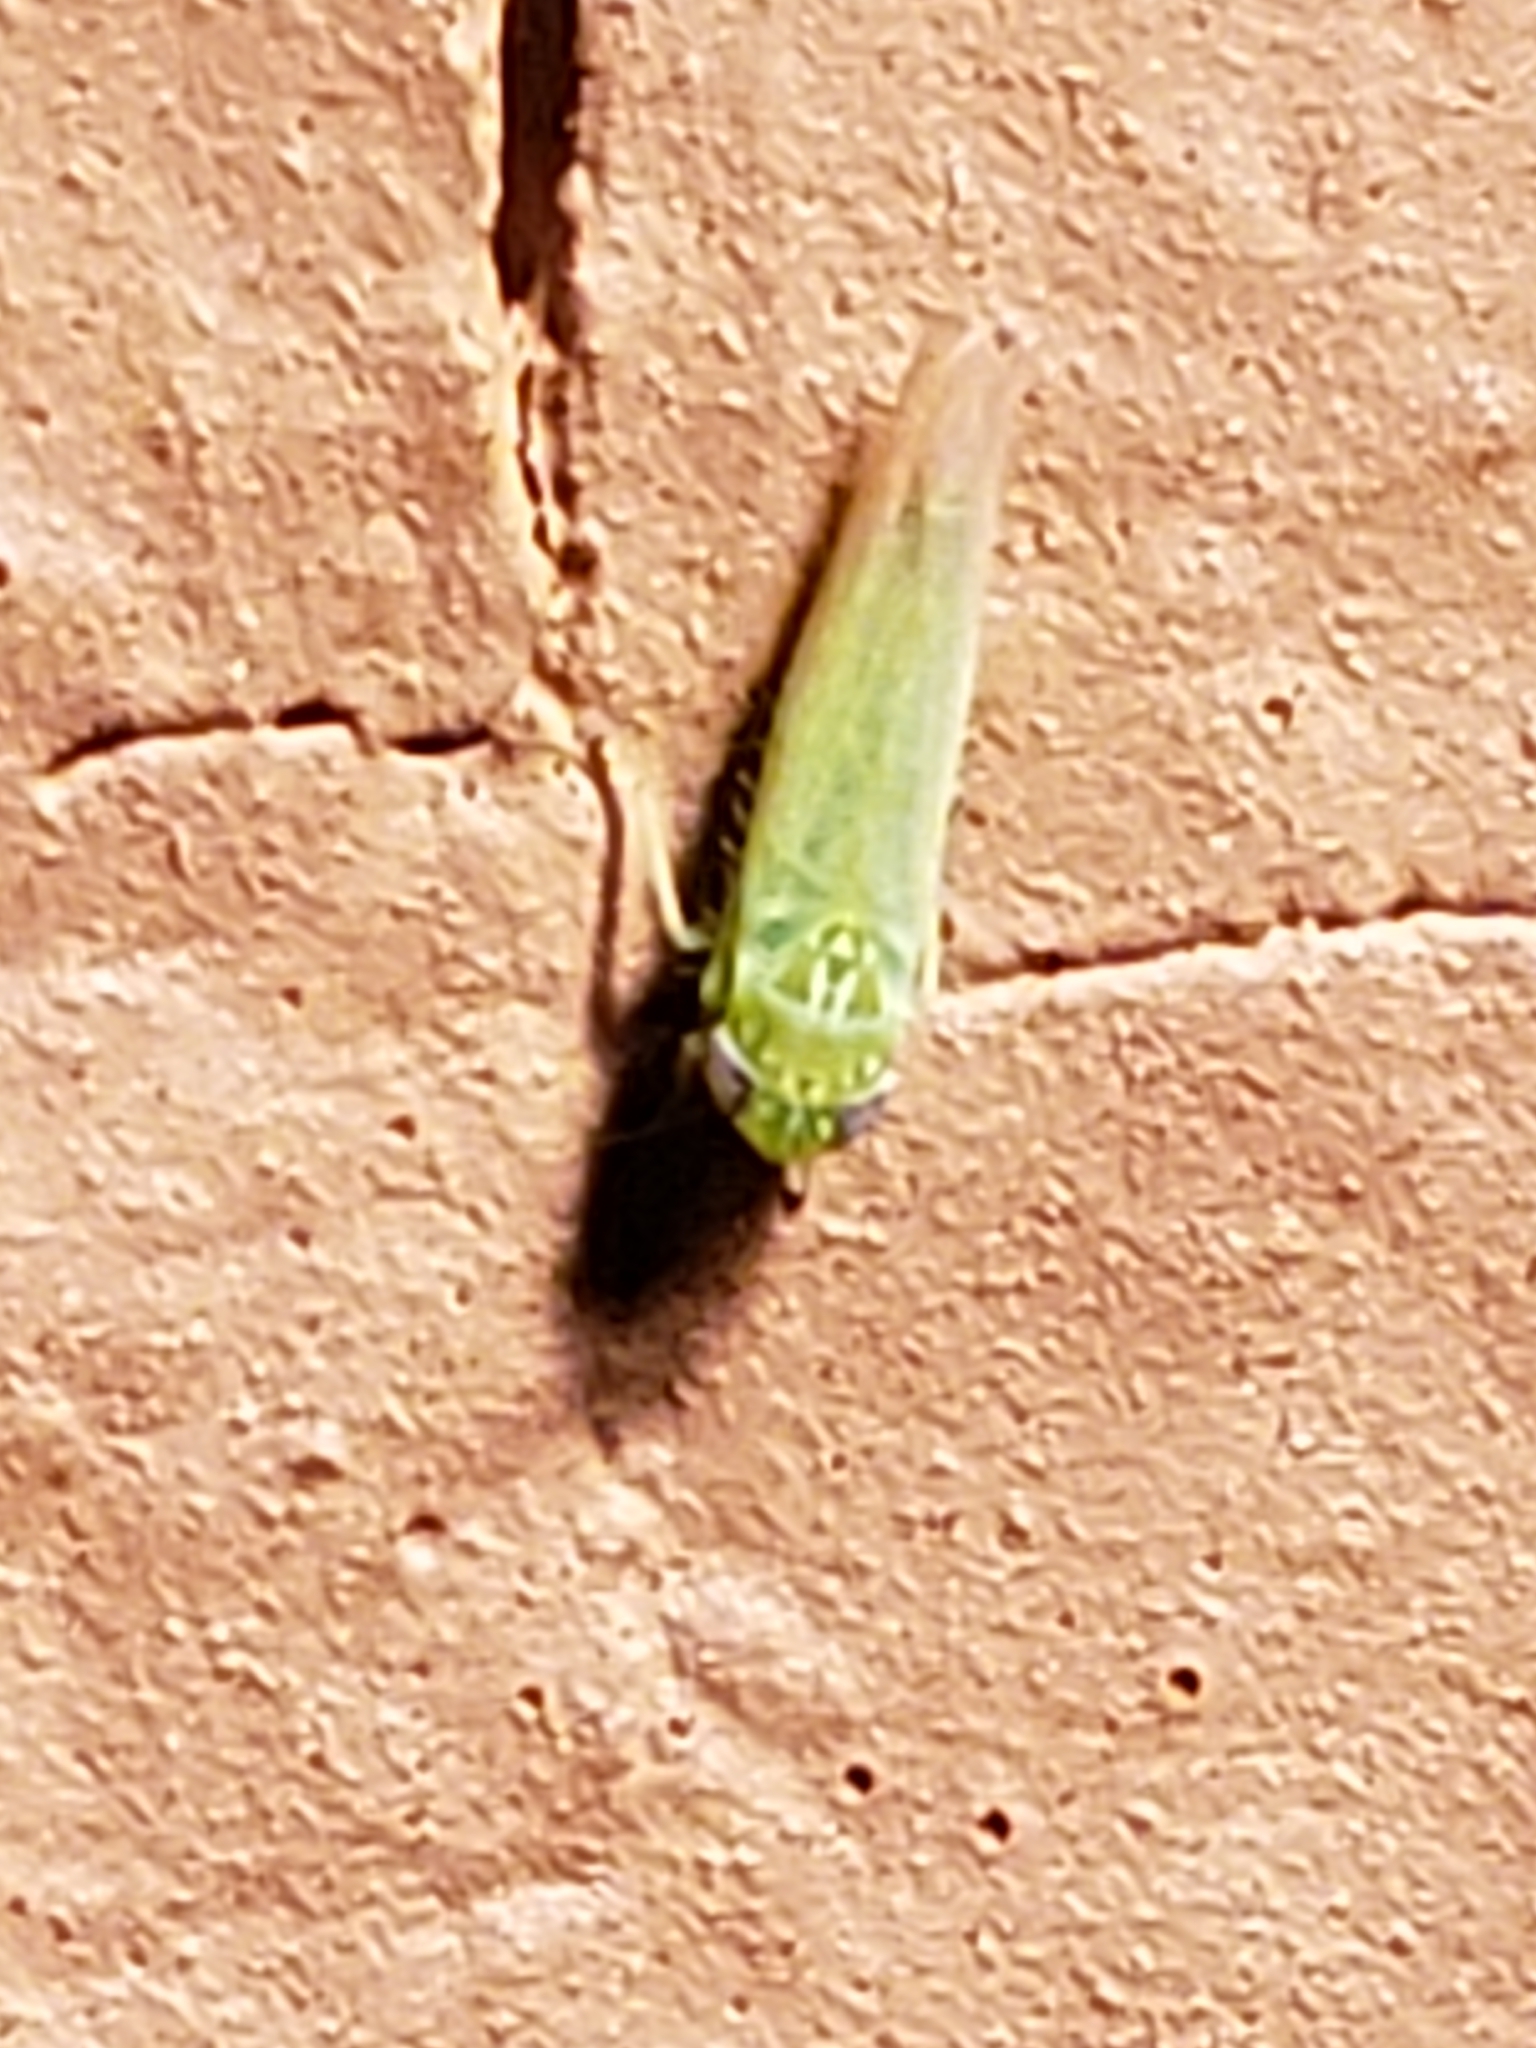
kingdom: Animalia
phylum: Arthropoda
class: Insecta
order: Hemiptera
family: Cicadellidae
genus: Empoasca
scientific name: Empoasca fabae
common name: Potato leafhopper
